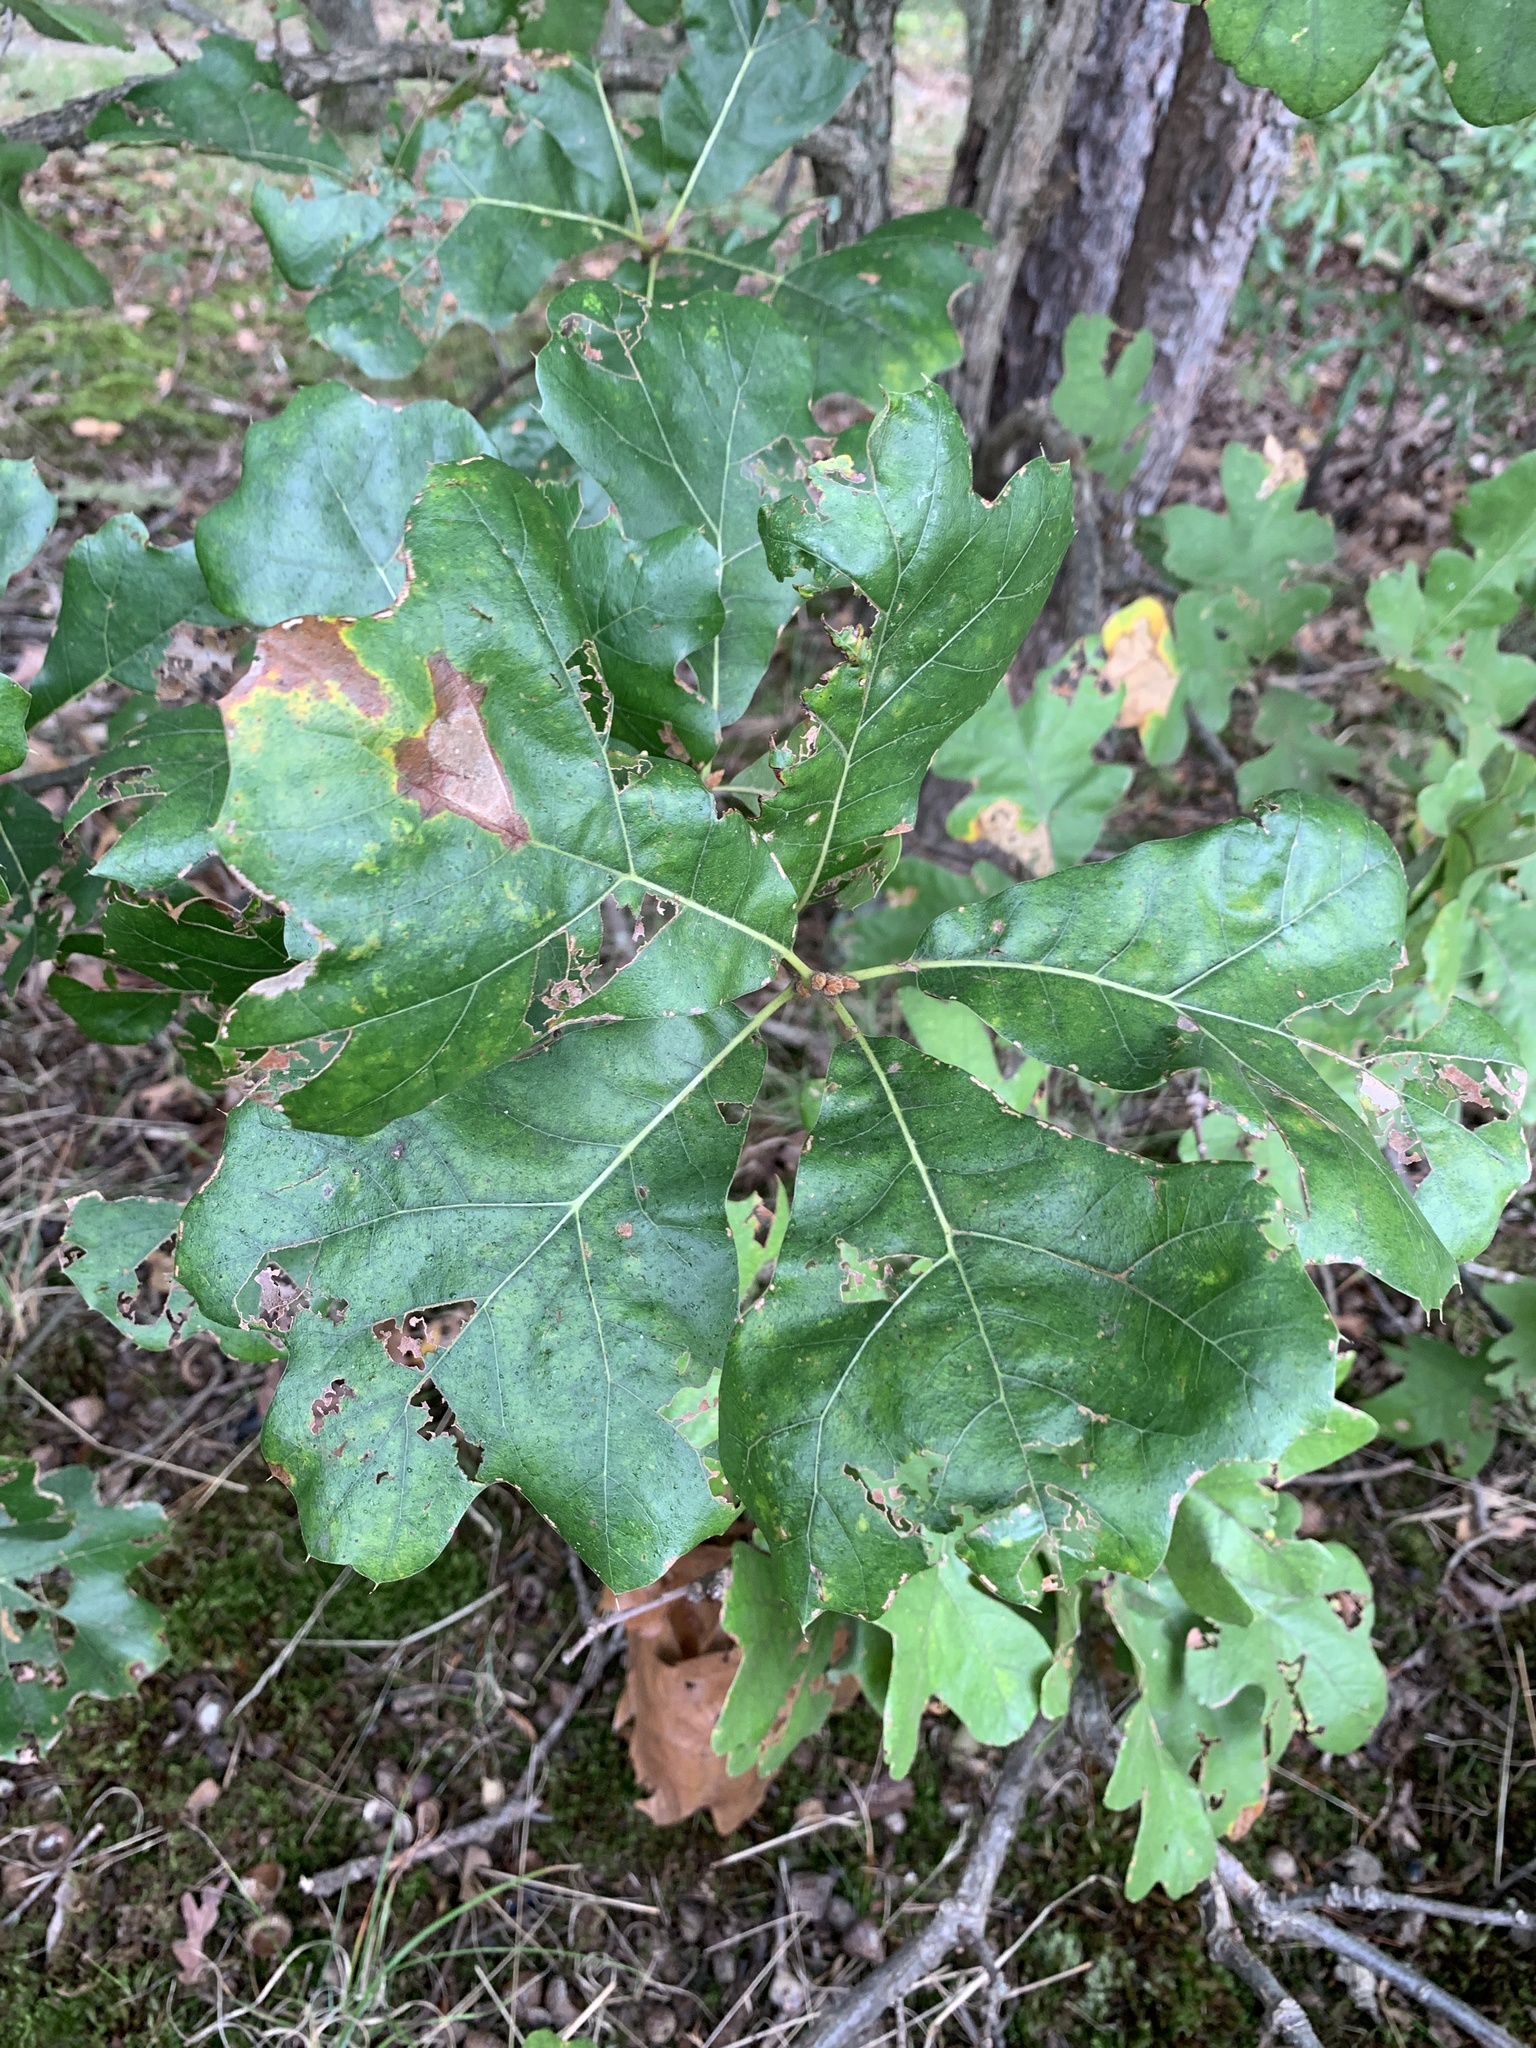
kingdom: Plantae
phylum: Tracheophyta
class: Magnoliopsida
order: Fagales
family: Fagaceae
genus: Quercus
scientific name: Quercus marilandica
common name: Blackjack oak
